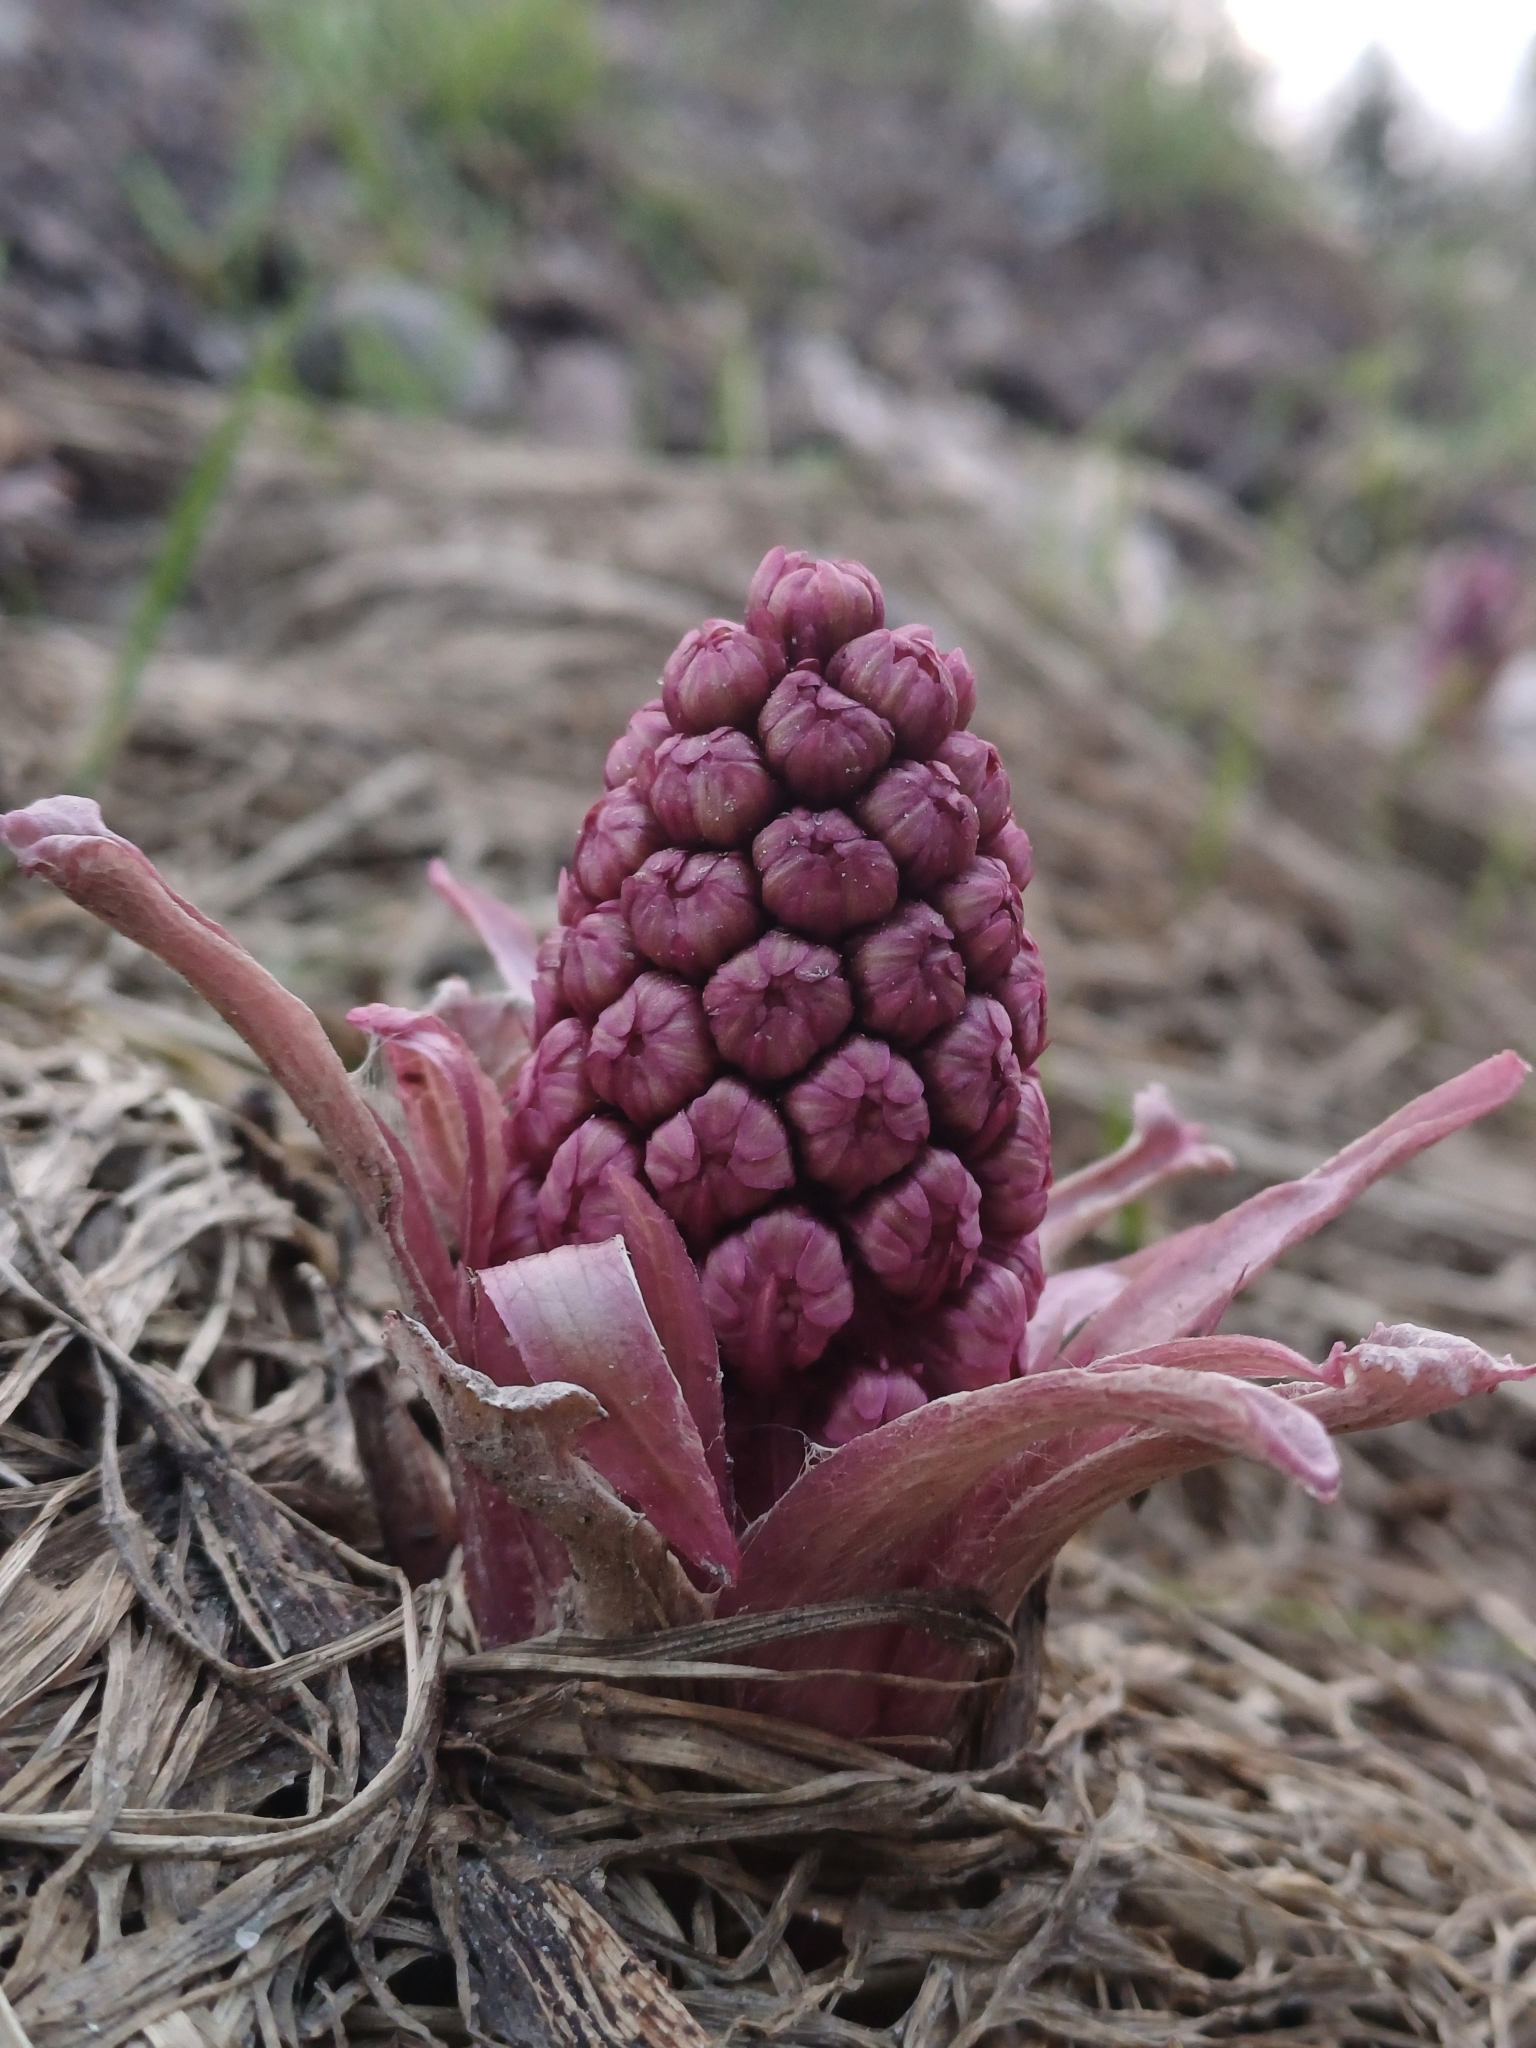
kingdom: Plantae
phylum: Tracheophyta
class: Magnoliopsida
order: Asterales
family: Asteraceae
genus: Petasites
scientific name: Petasites hybridus
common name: Butterbur
